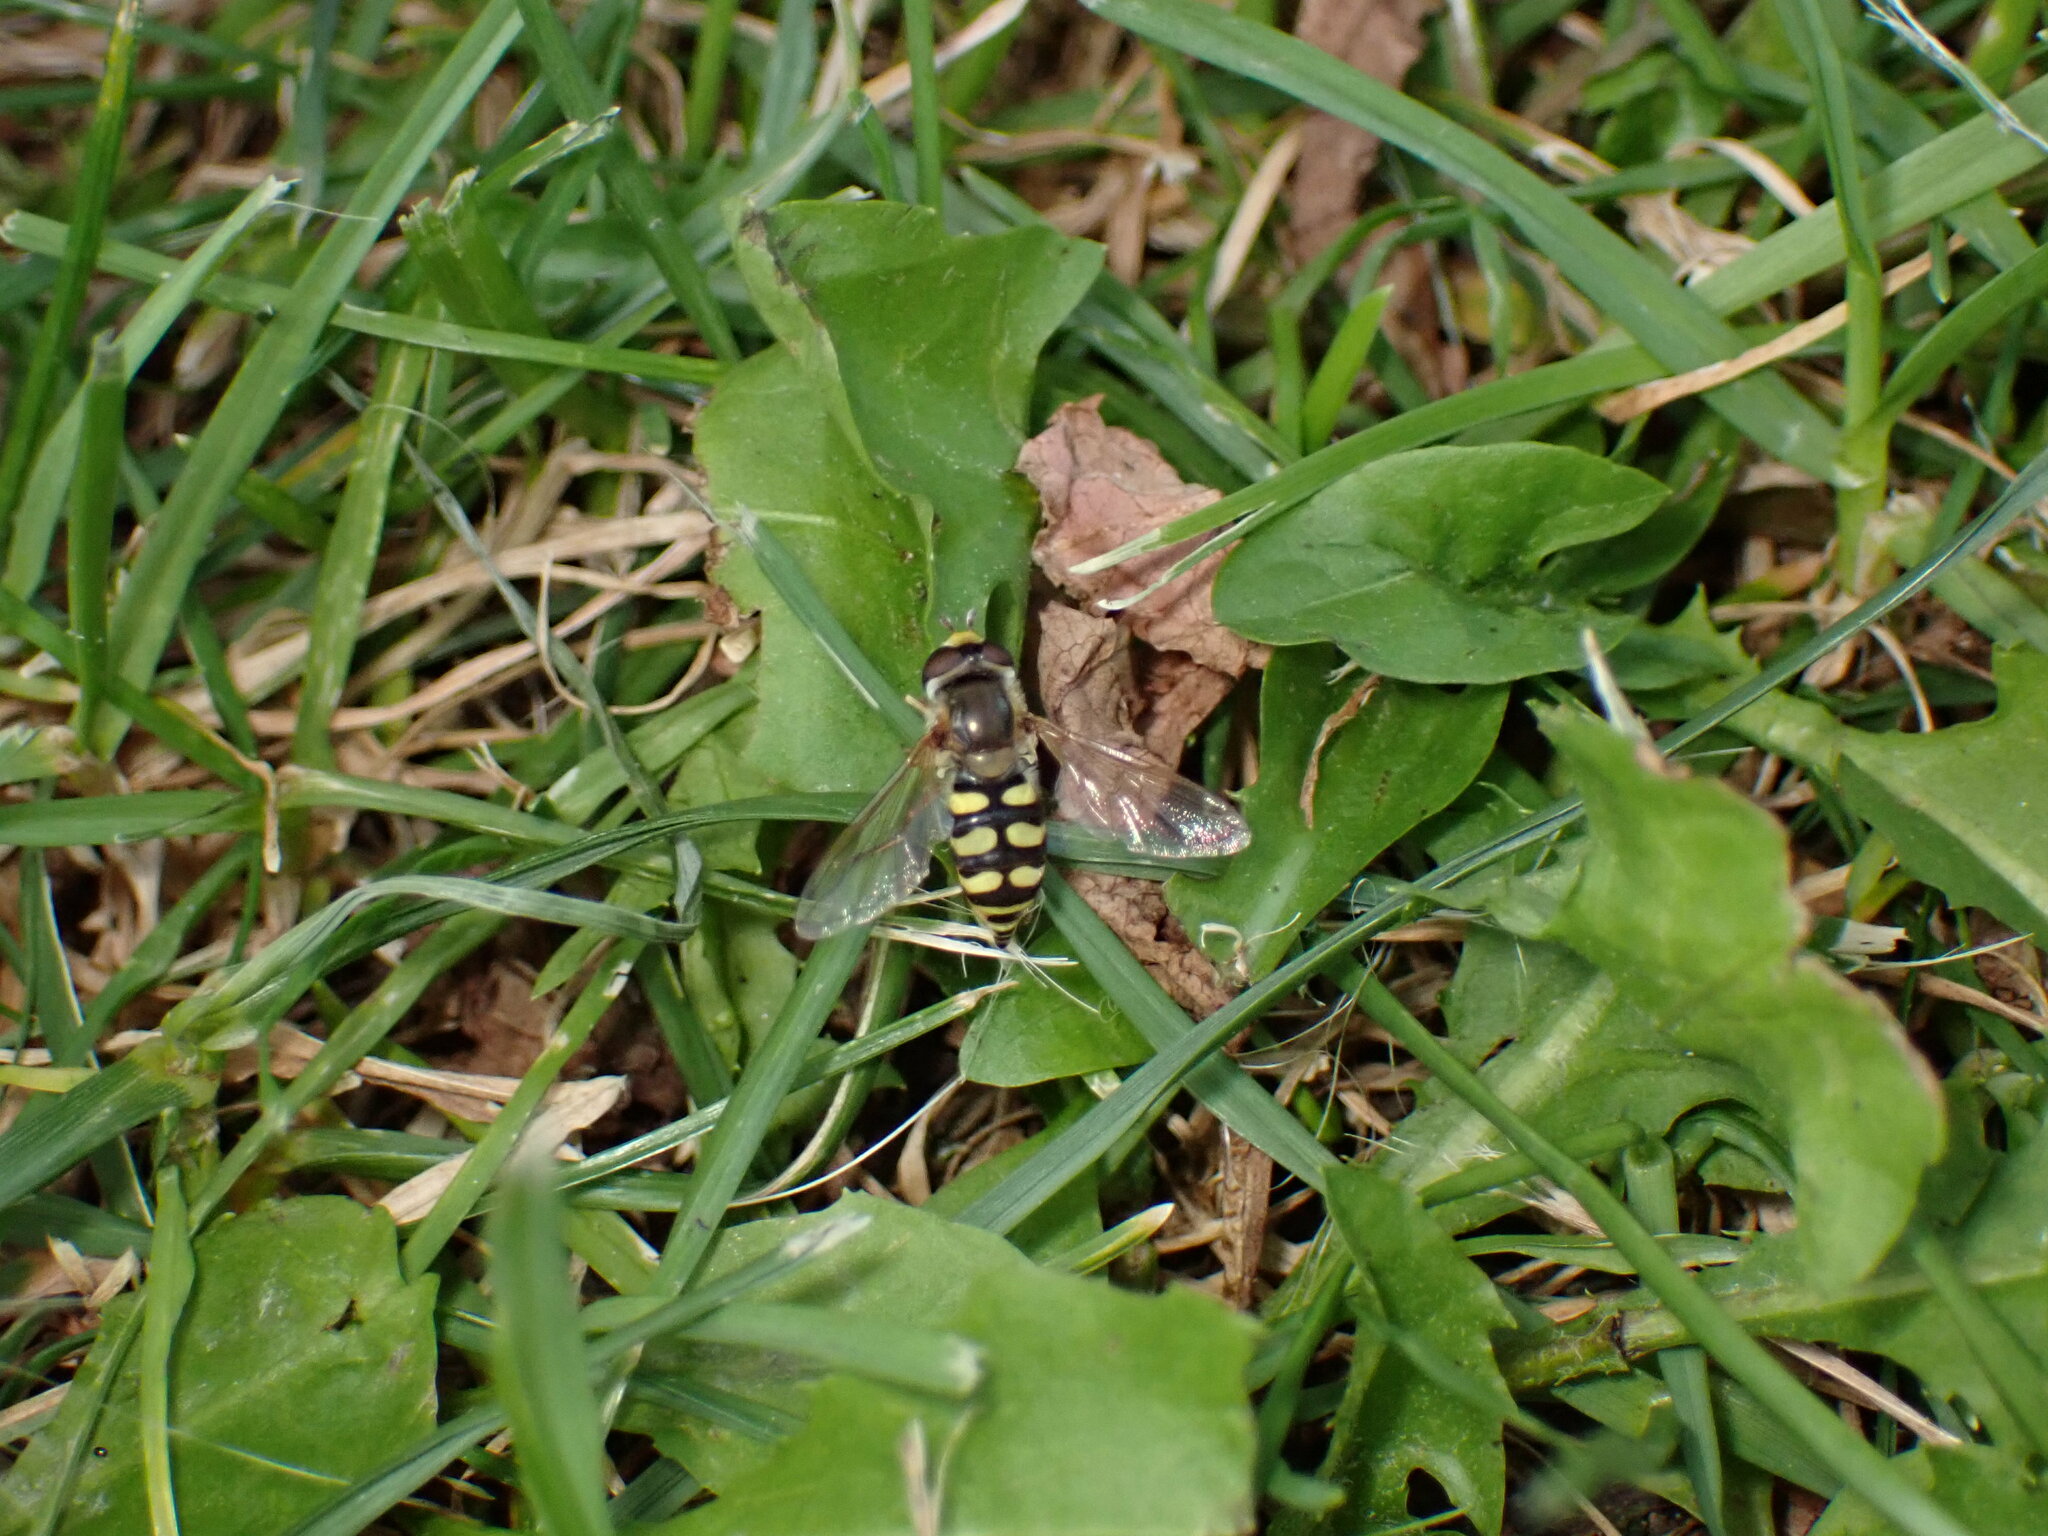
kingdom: Animalia
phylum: Arthropoda
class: Insecta
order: Diptera
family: Syrphidae
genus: Eupeodes
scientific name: Eupeodes corollae
